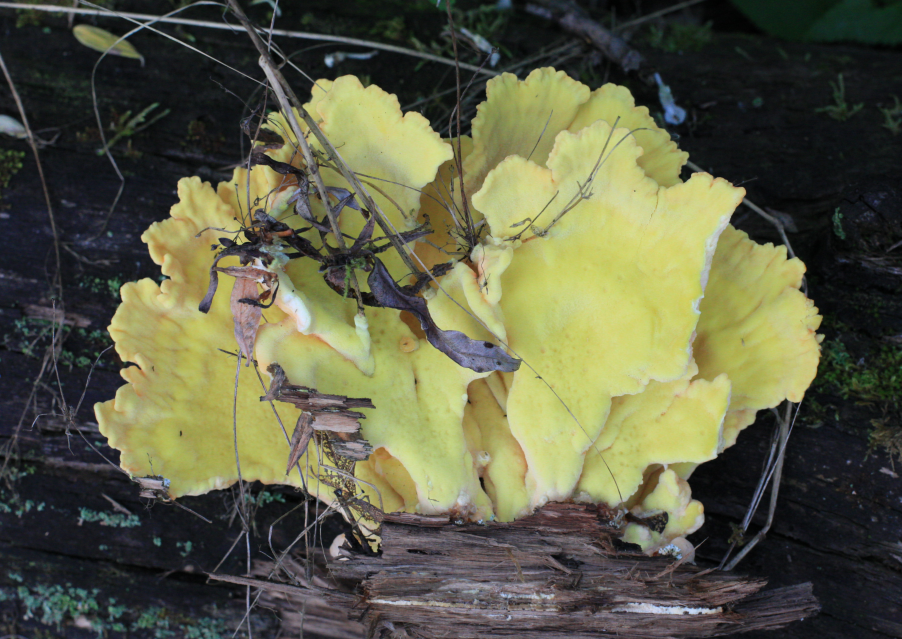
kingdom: Fungi
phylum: Basidiomycota
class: Agaricomycetes
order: Polyporales
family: Laetiporaceae
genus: Laetiporus
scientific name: Laetiporus sulphureus
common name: Chicken of the woods
